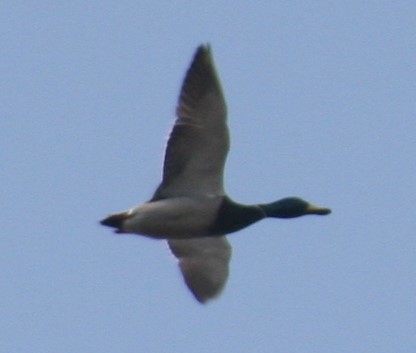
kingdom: Animalia
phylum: Chordata
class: Aves
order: Anseriformes
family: Anatidae
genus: Anas
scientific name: Anas platyrhynchos
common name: Mallard
